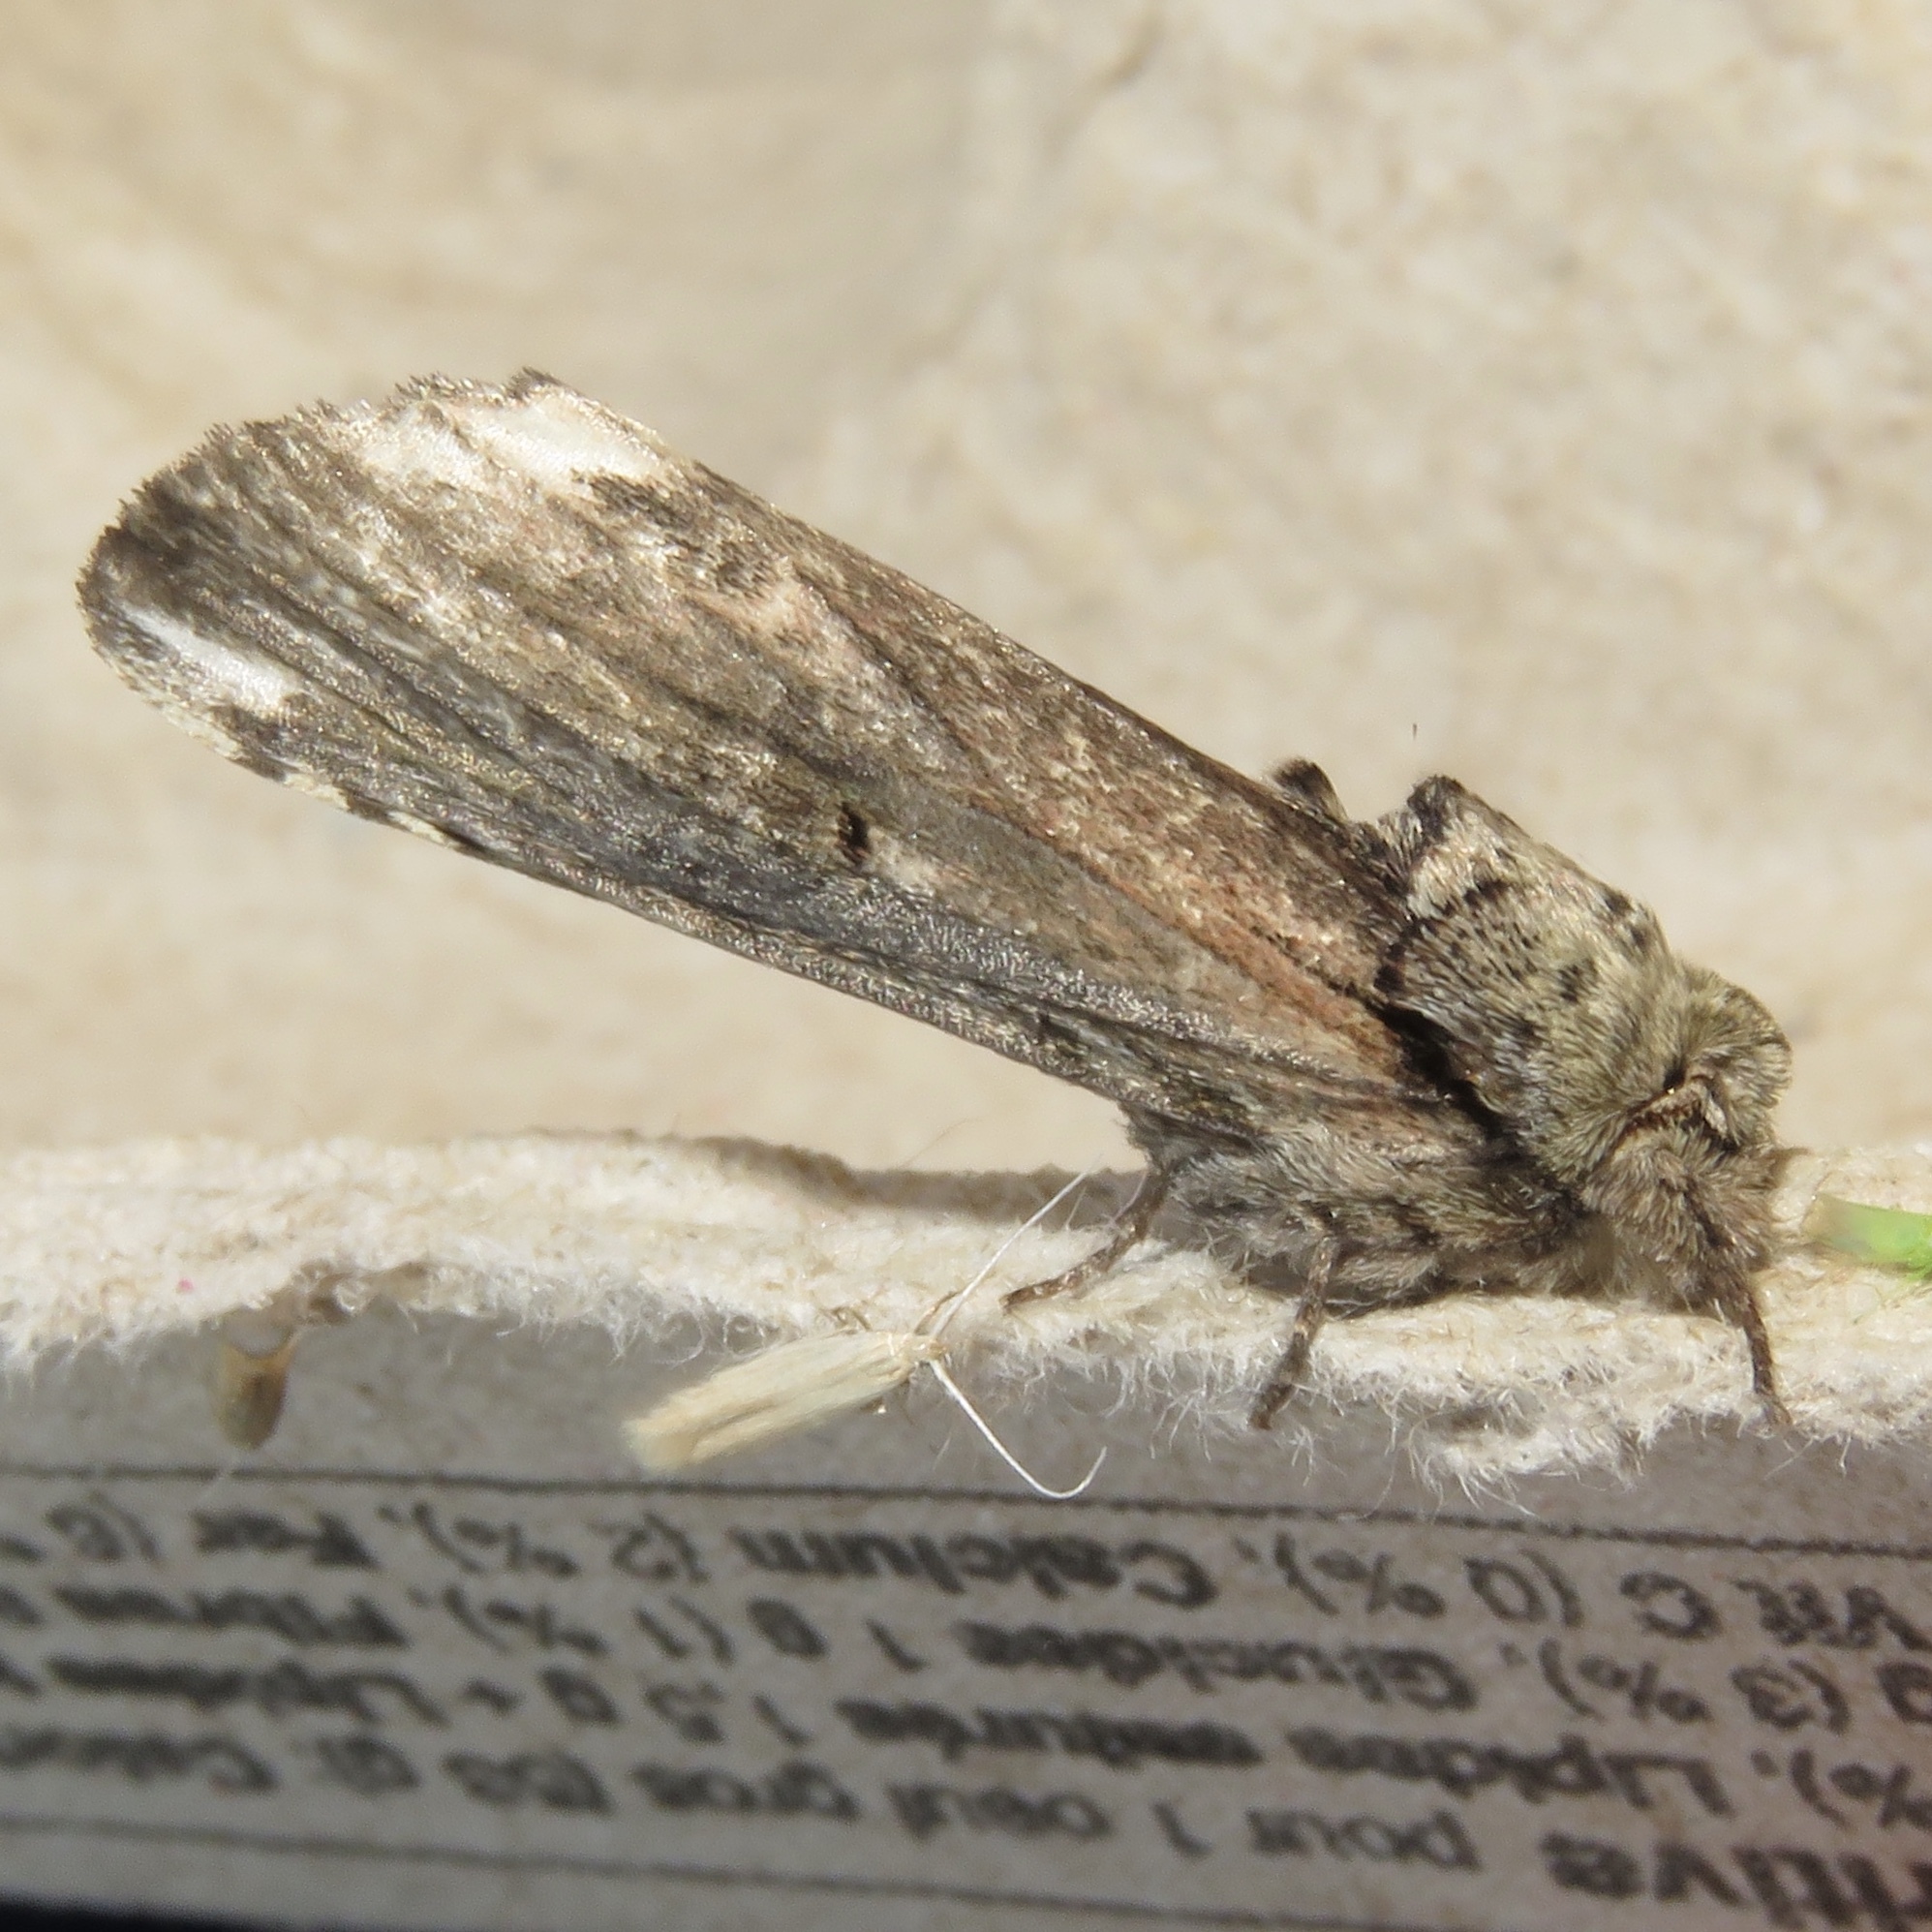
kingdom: Animalia
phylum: Arthropoda
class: Insecta
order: Lepidoptera
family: Notodontidae
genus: Schizura
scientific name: Schizura
